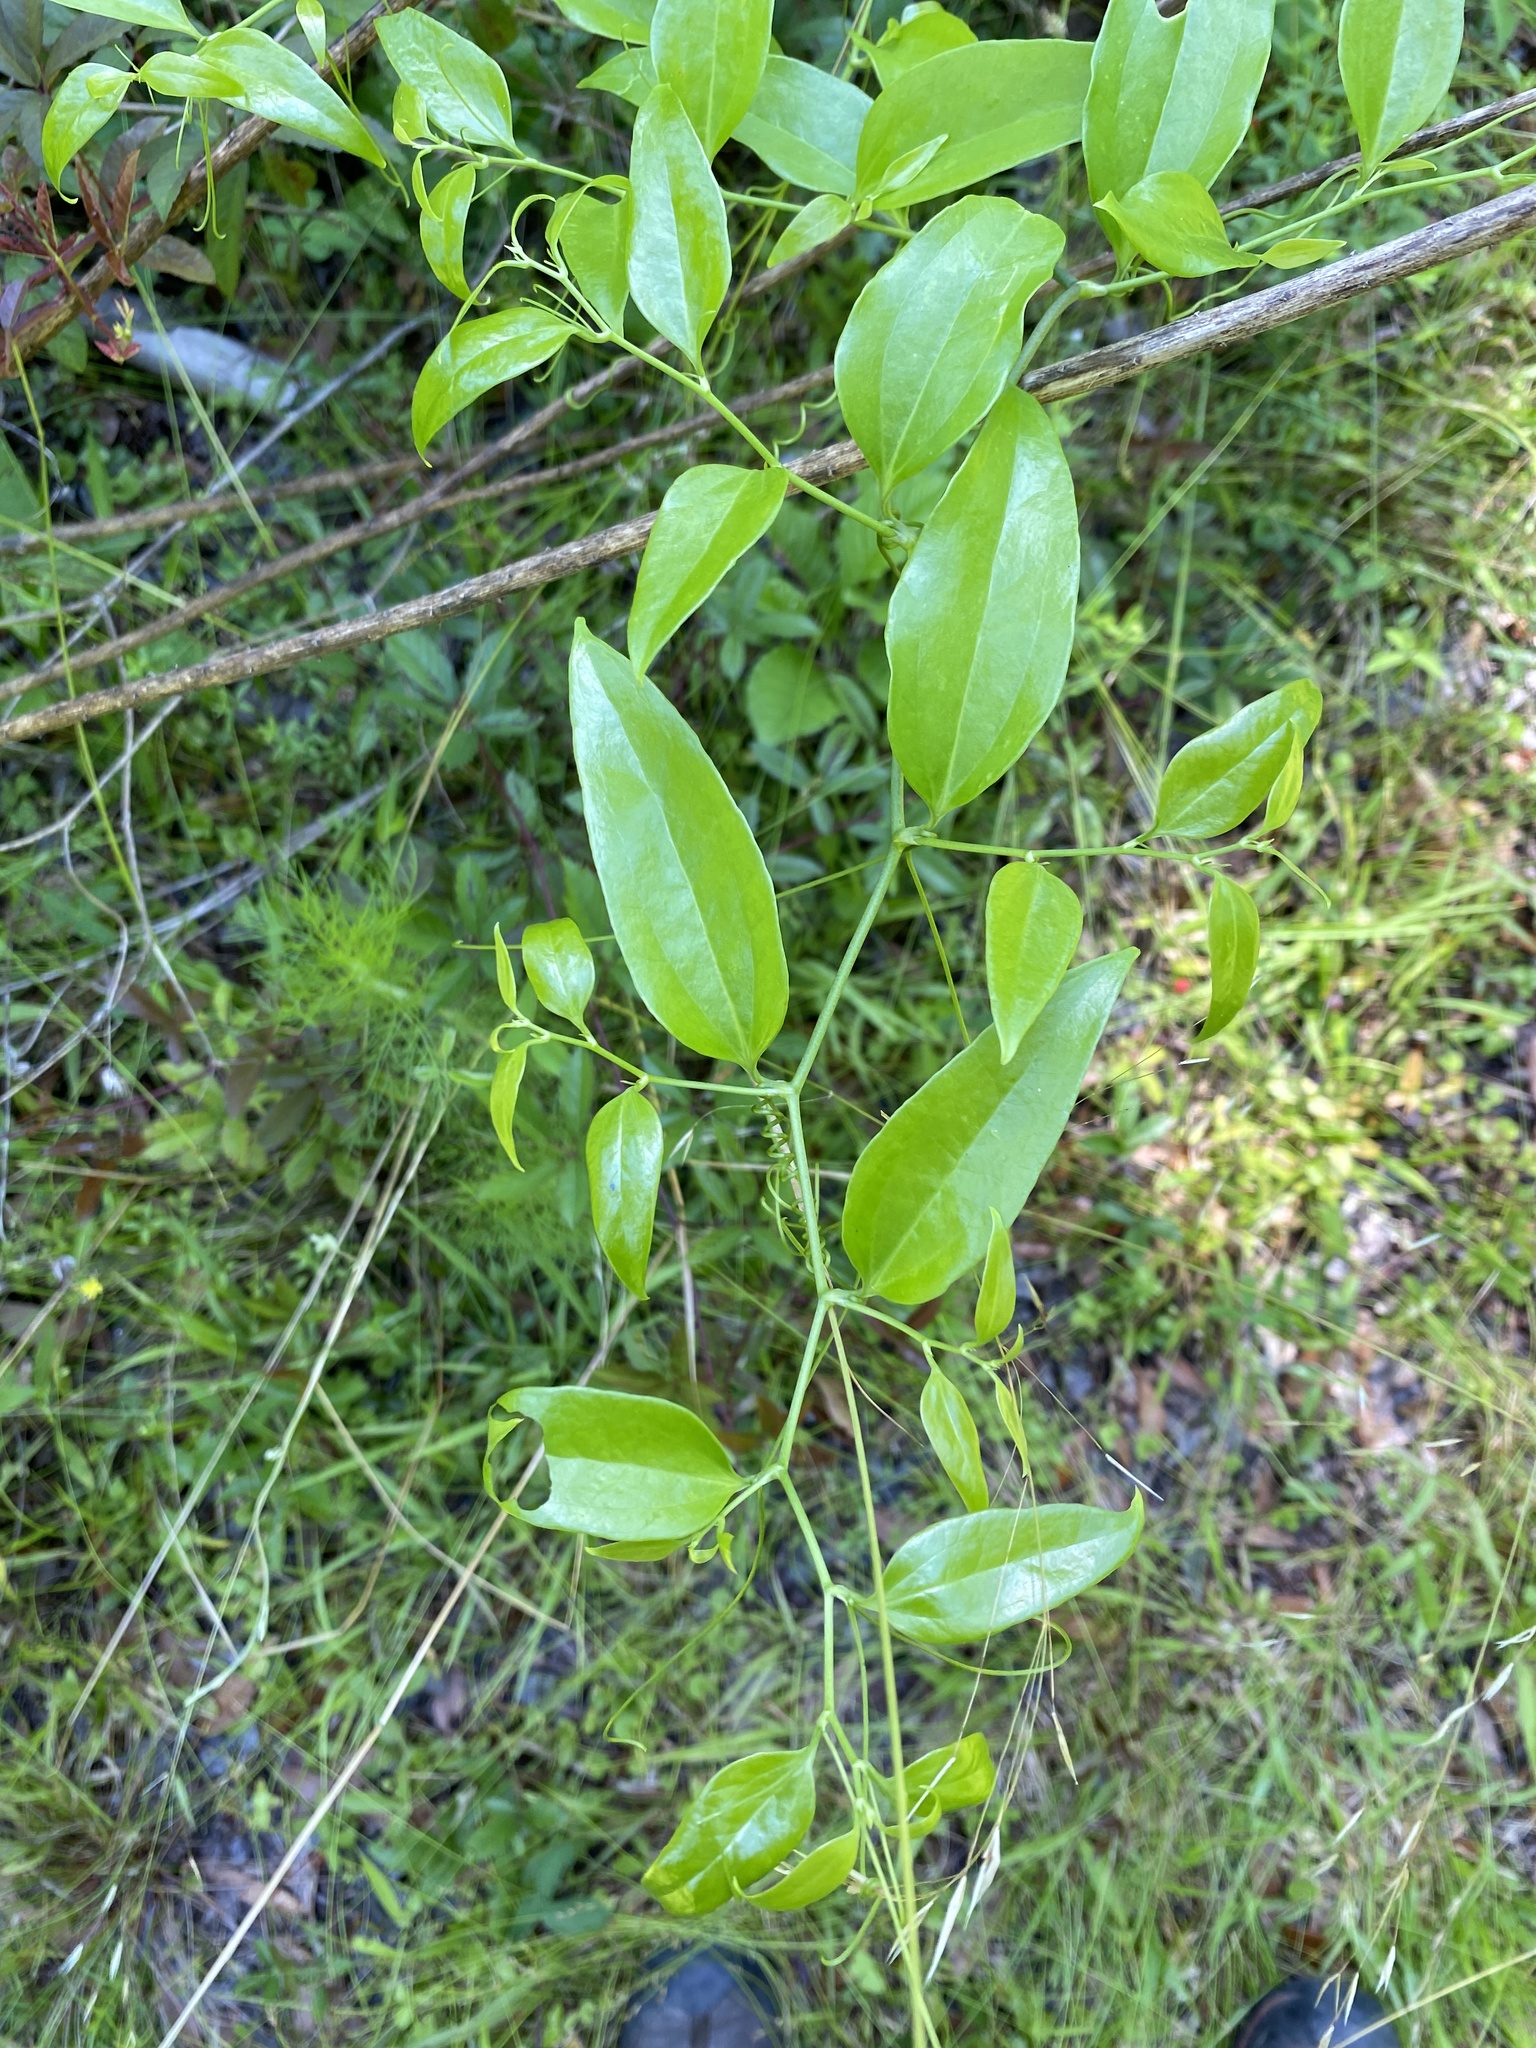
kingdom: Plantae
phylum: Tracheophyta
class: Liliopsida
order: Liliales
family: Smilacaceae
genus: Smilax
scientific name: Smilax maritima
